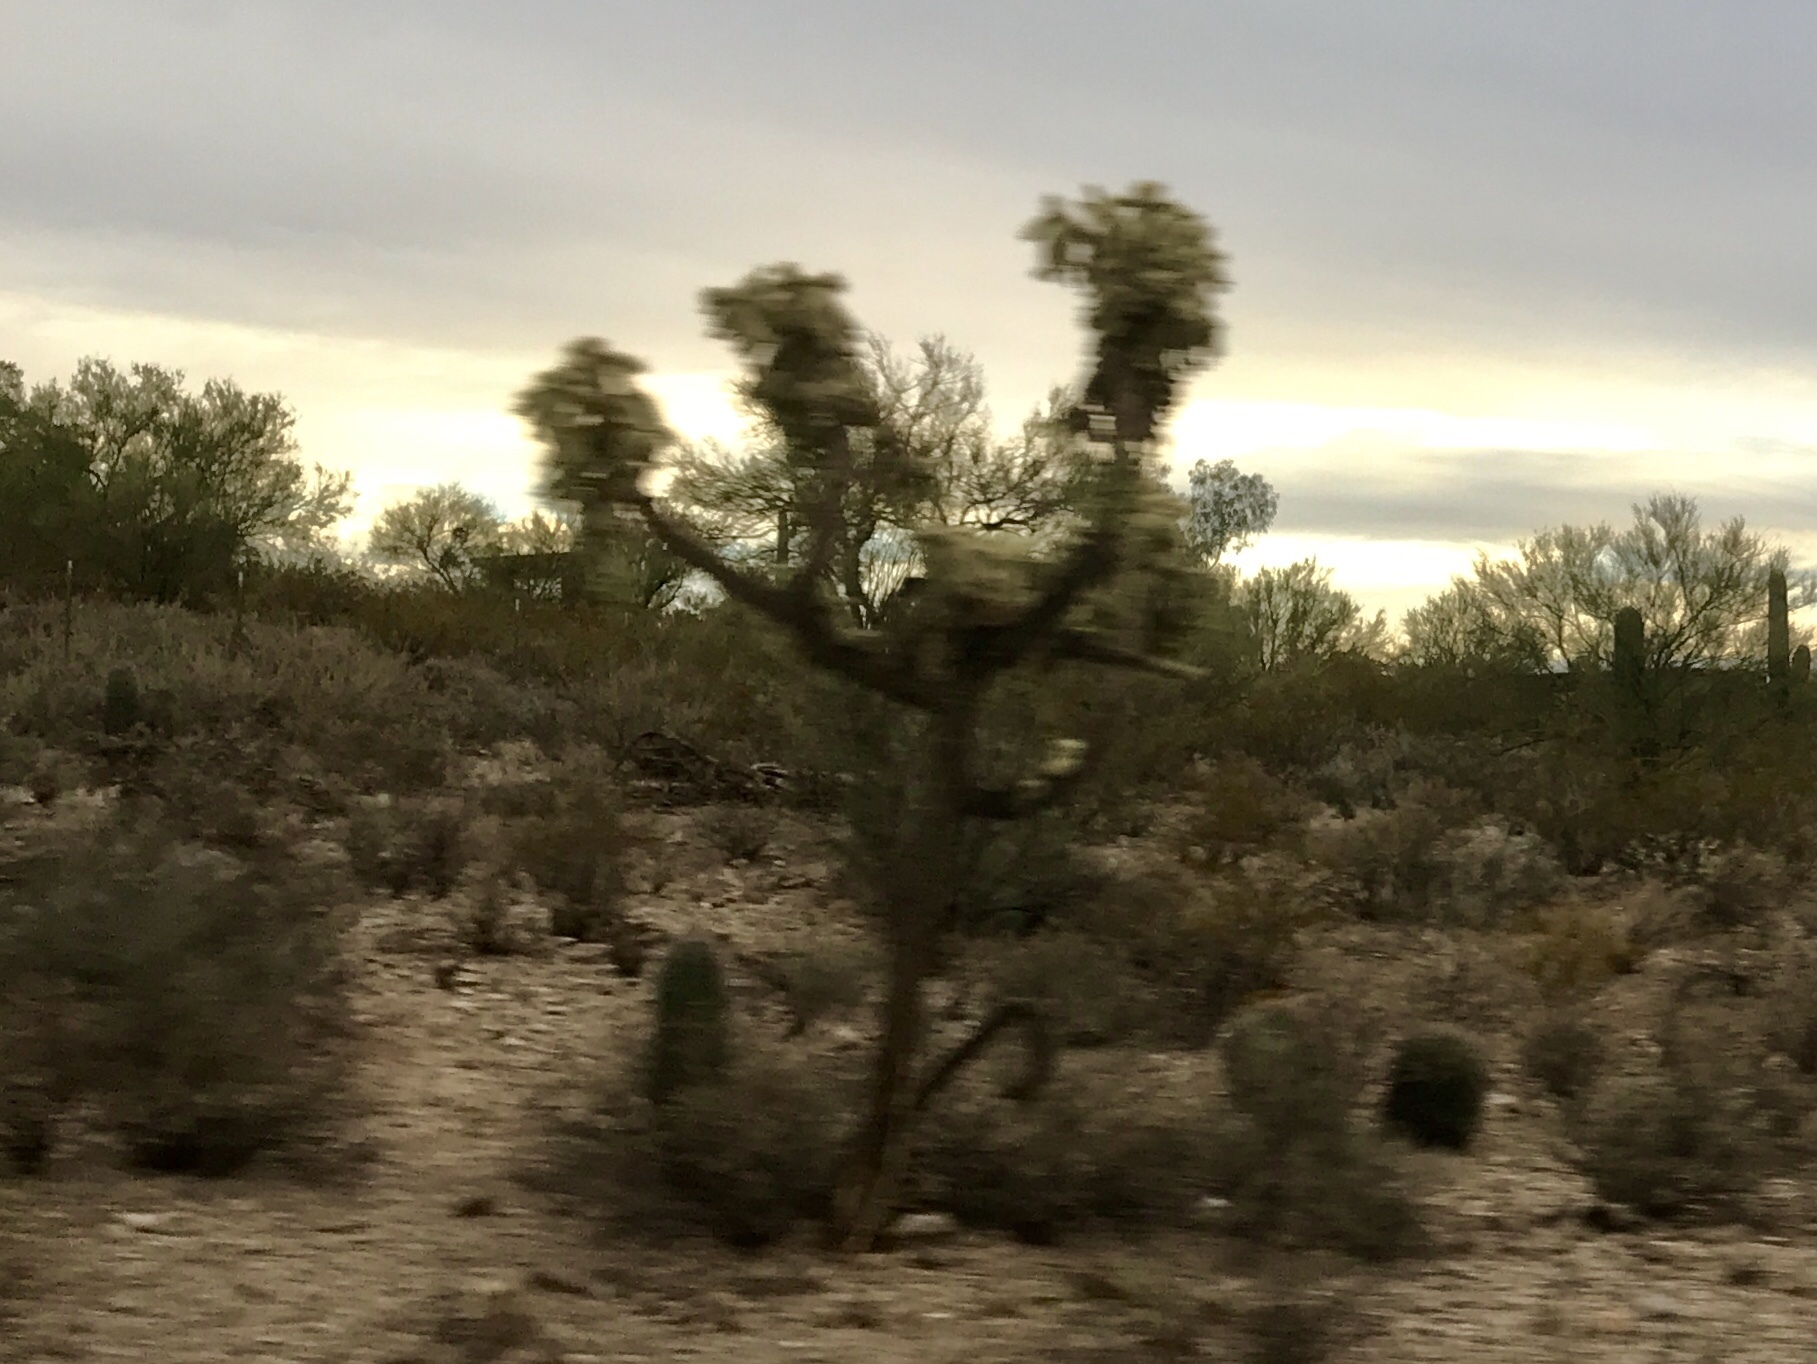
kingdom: Plantae
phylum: Tracheophyta
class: Magnoliopsida
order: Caryophyllales
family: Cactaceae
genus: Cylindropuntia
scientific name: Cylindropuntia fulgida
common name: Jumping cholla
